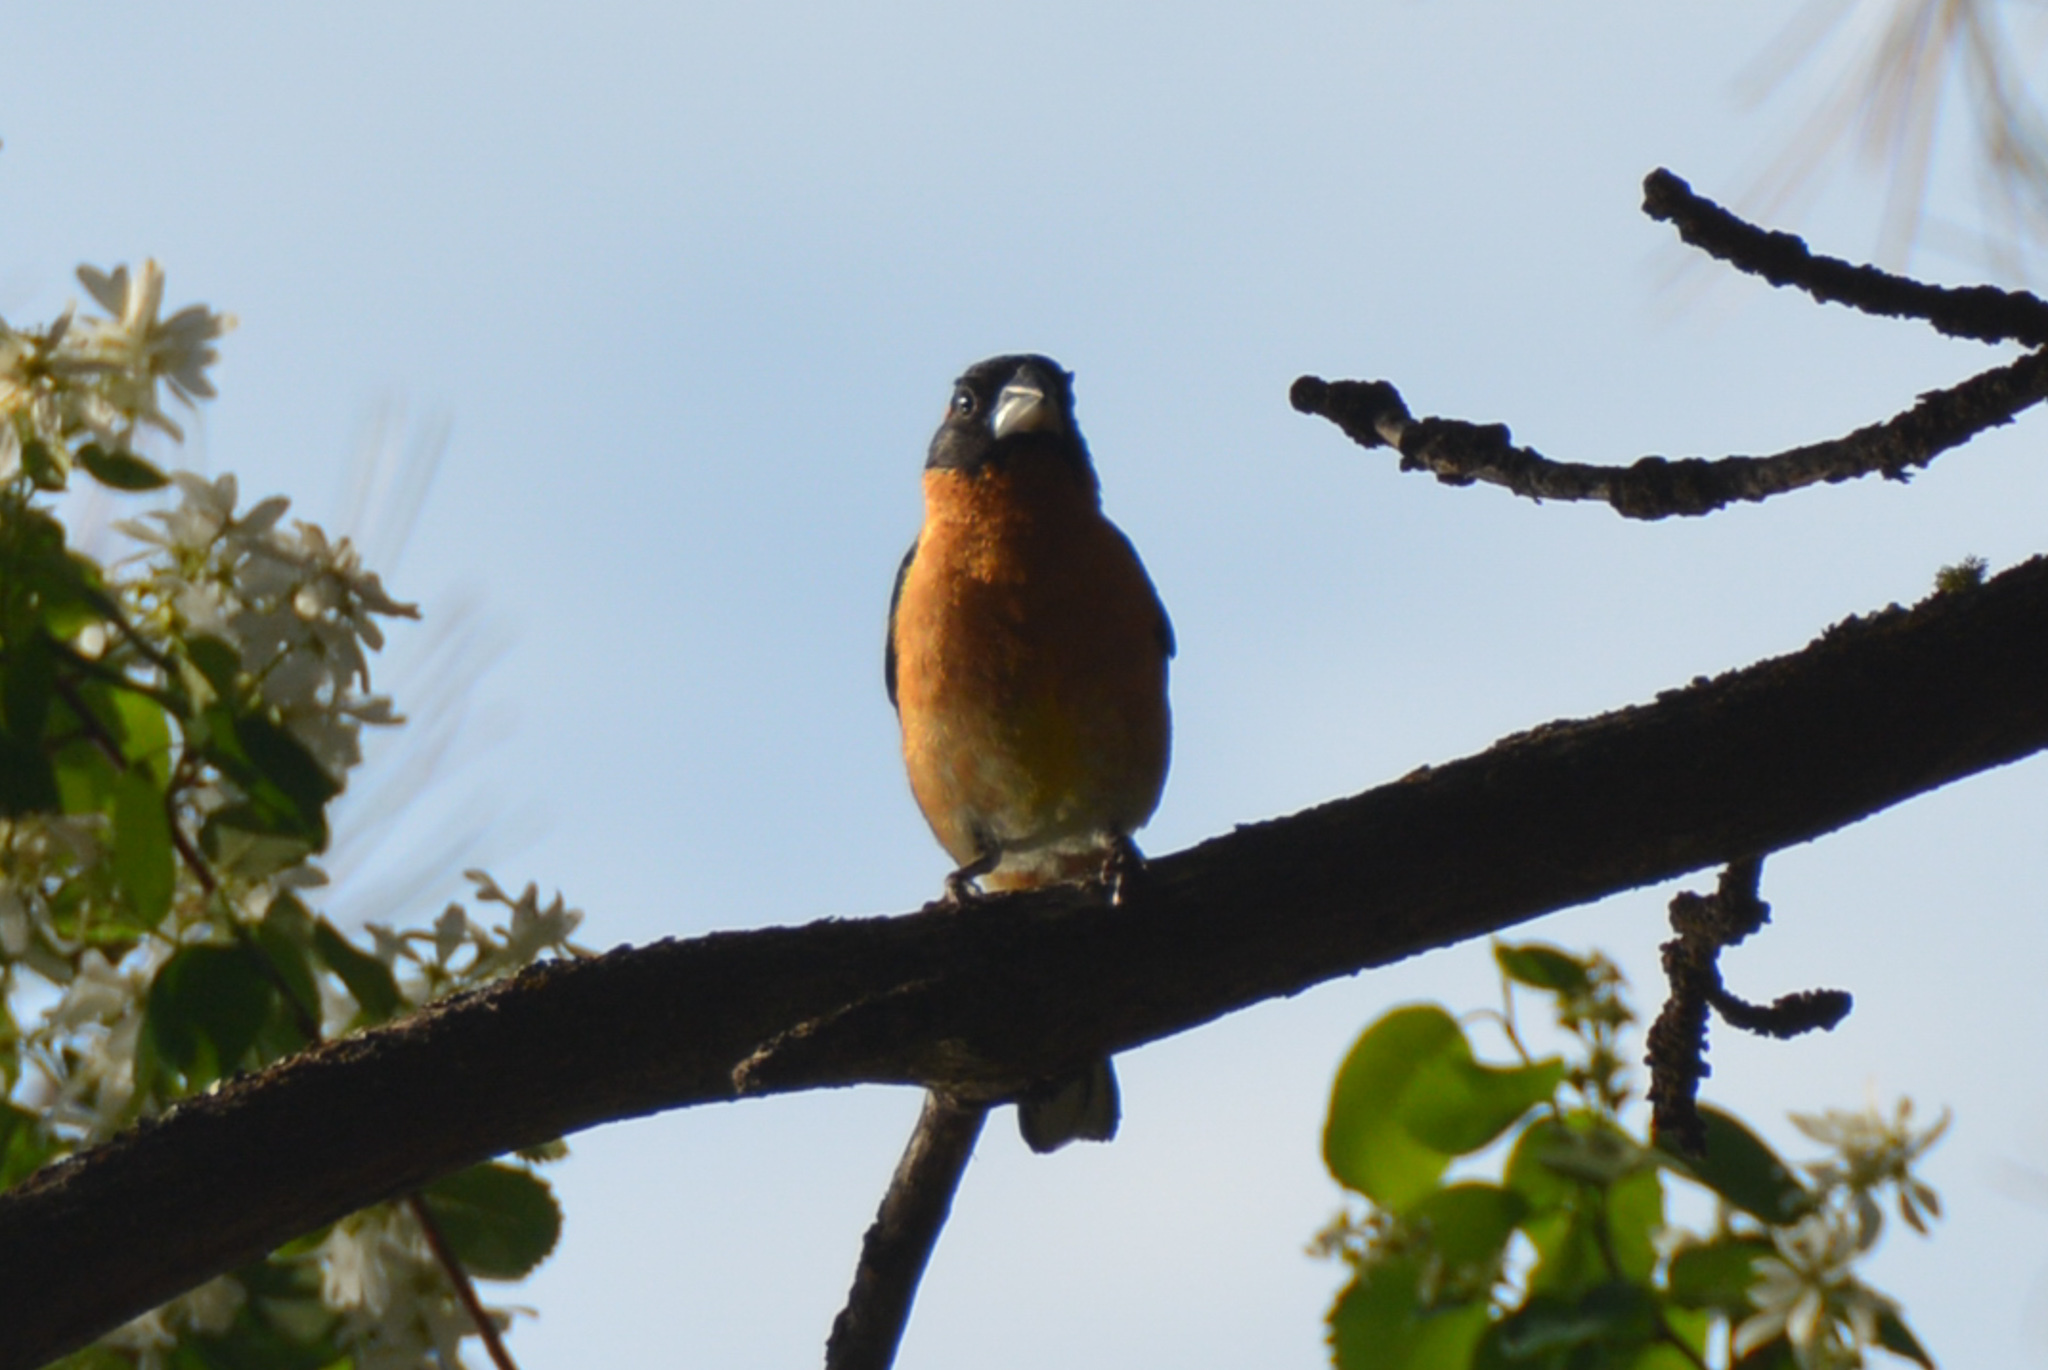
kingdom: Animalia
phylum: Chordata
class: Aves
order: Passeriformes
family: Cardinalidae
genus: Pheucticus
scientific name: Pheucticus melanocephalus
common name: Black-headed grosbeak
